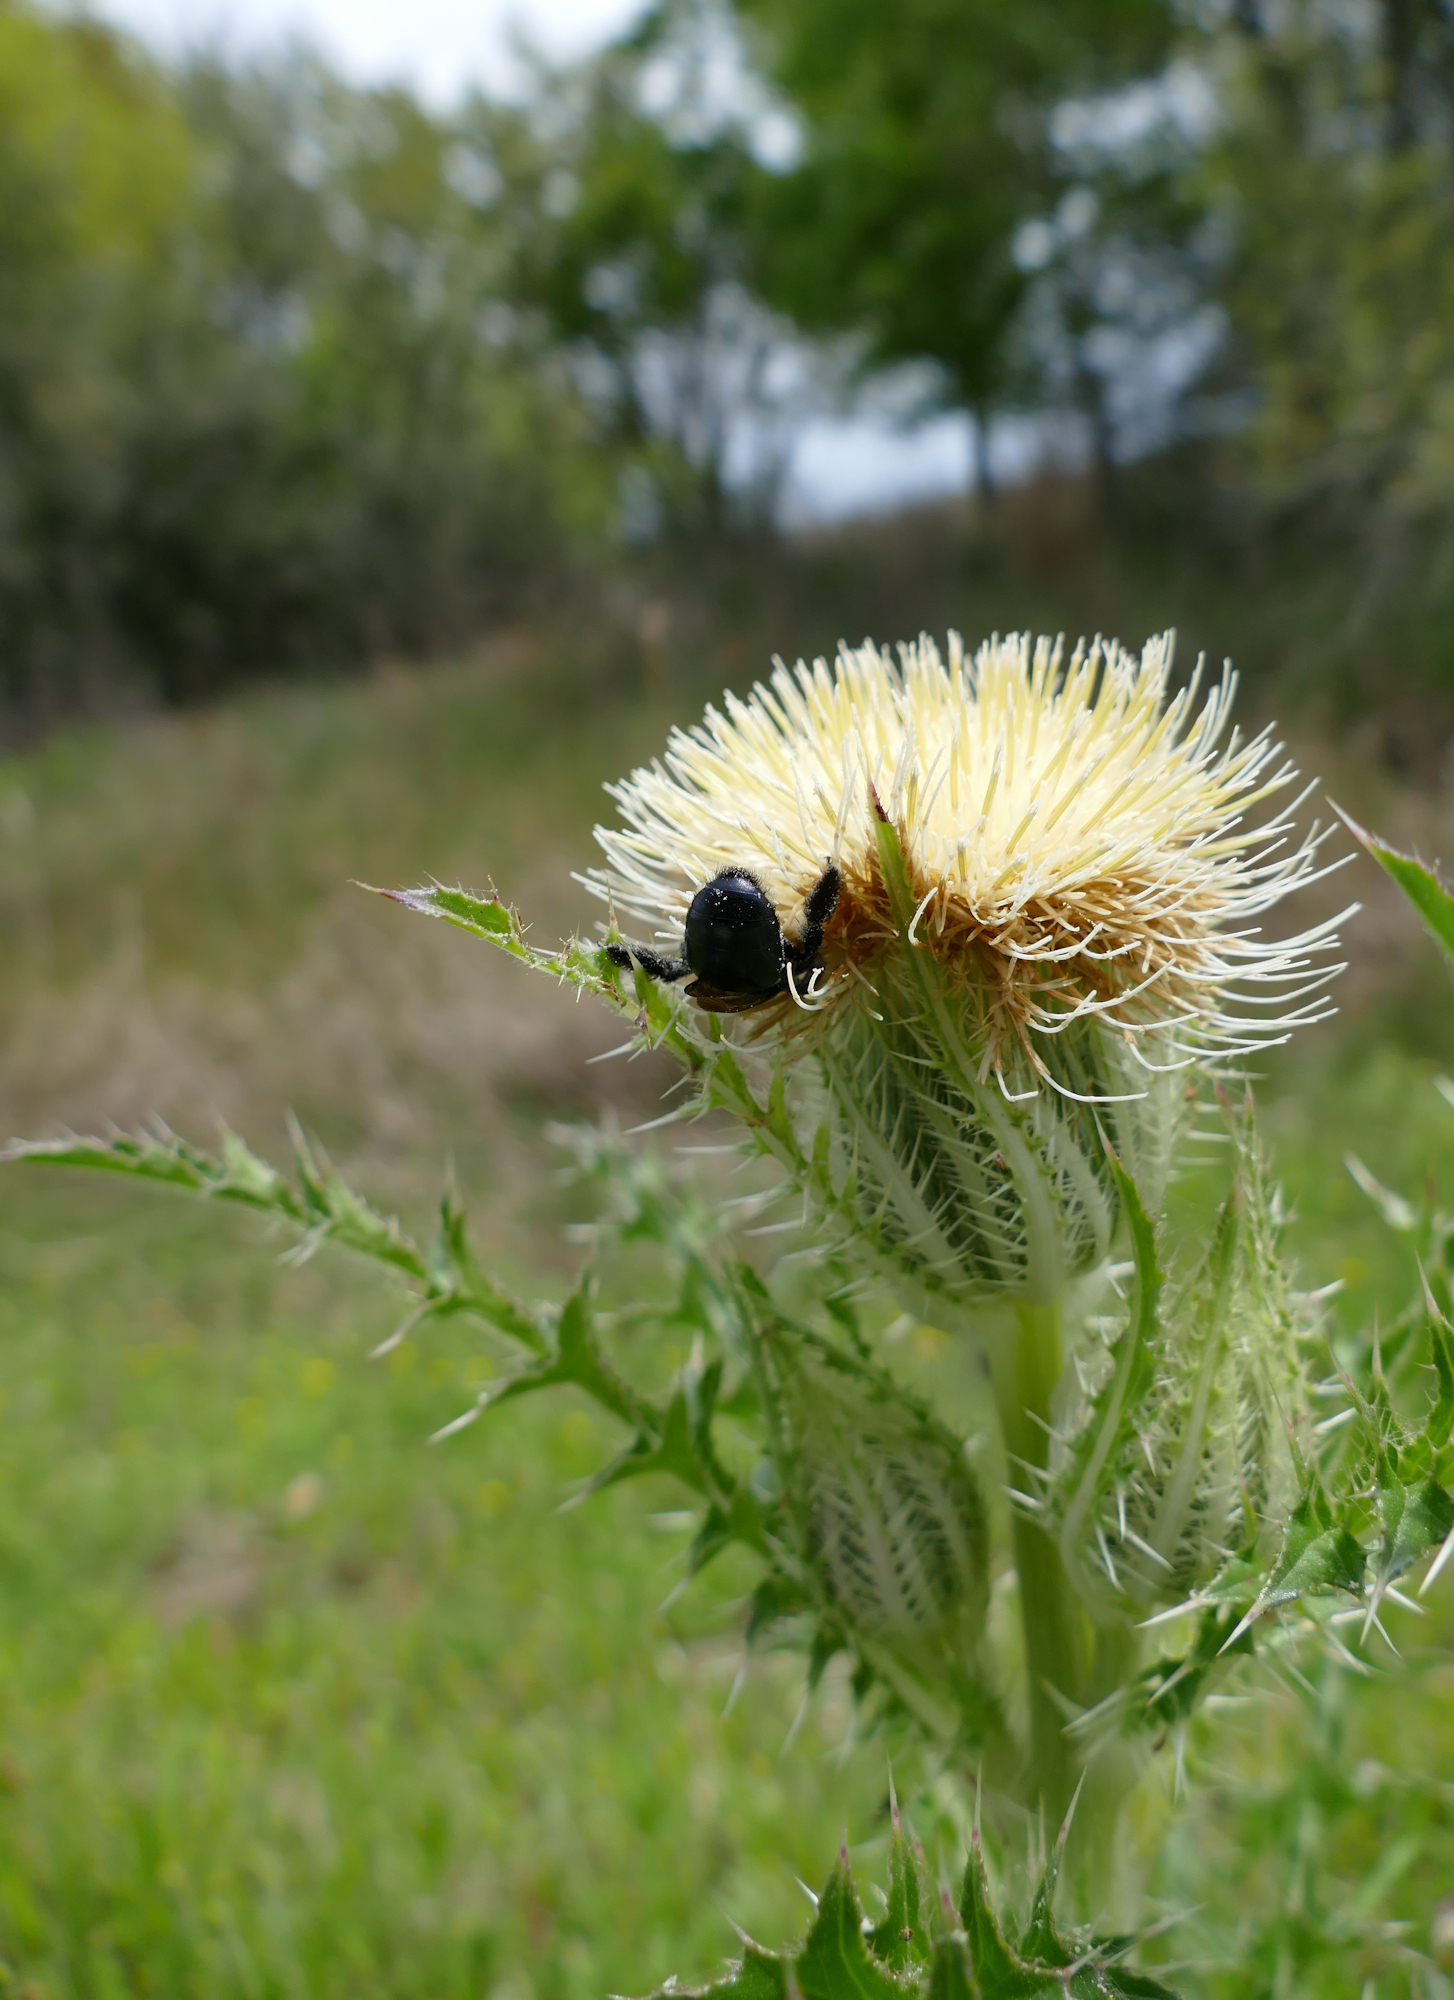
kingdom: Plantae
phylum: Tracheophyta
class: Magnoliopsida
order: Asterales
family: Asteraceae
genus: Cirsium
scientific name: Cirsium horridulum
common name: Bristly thistle
